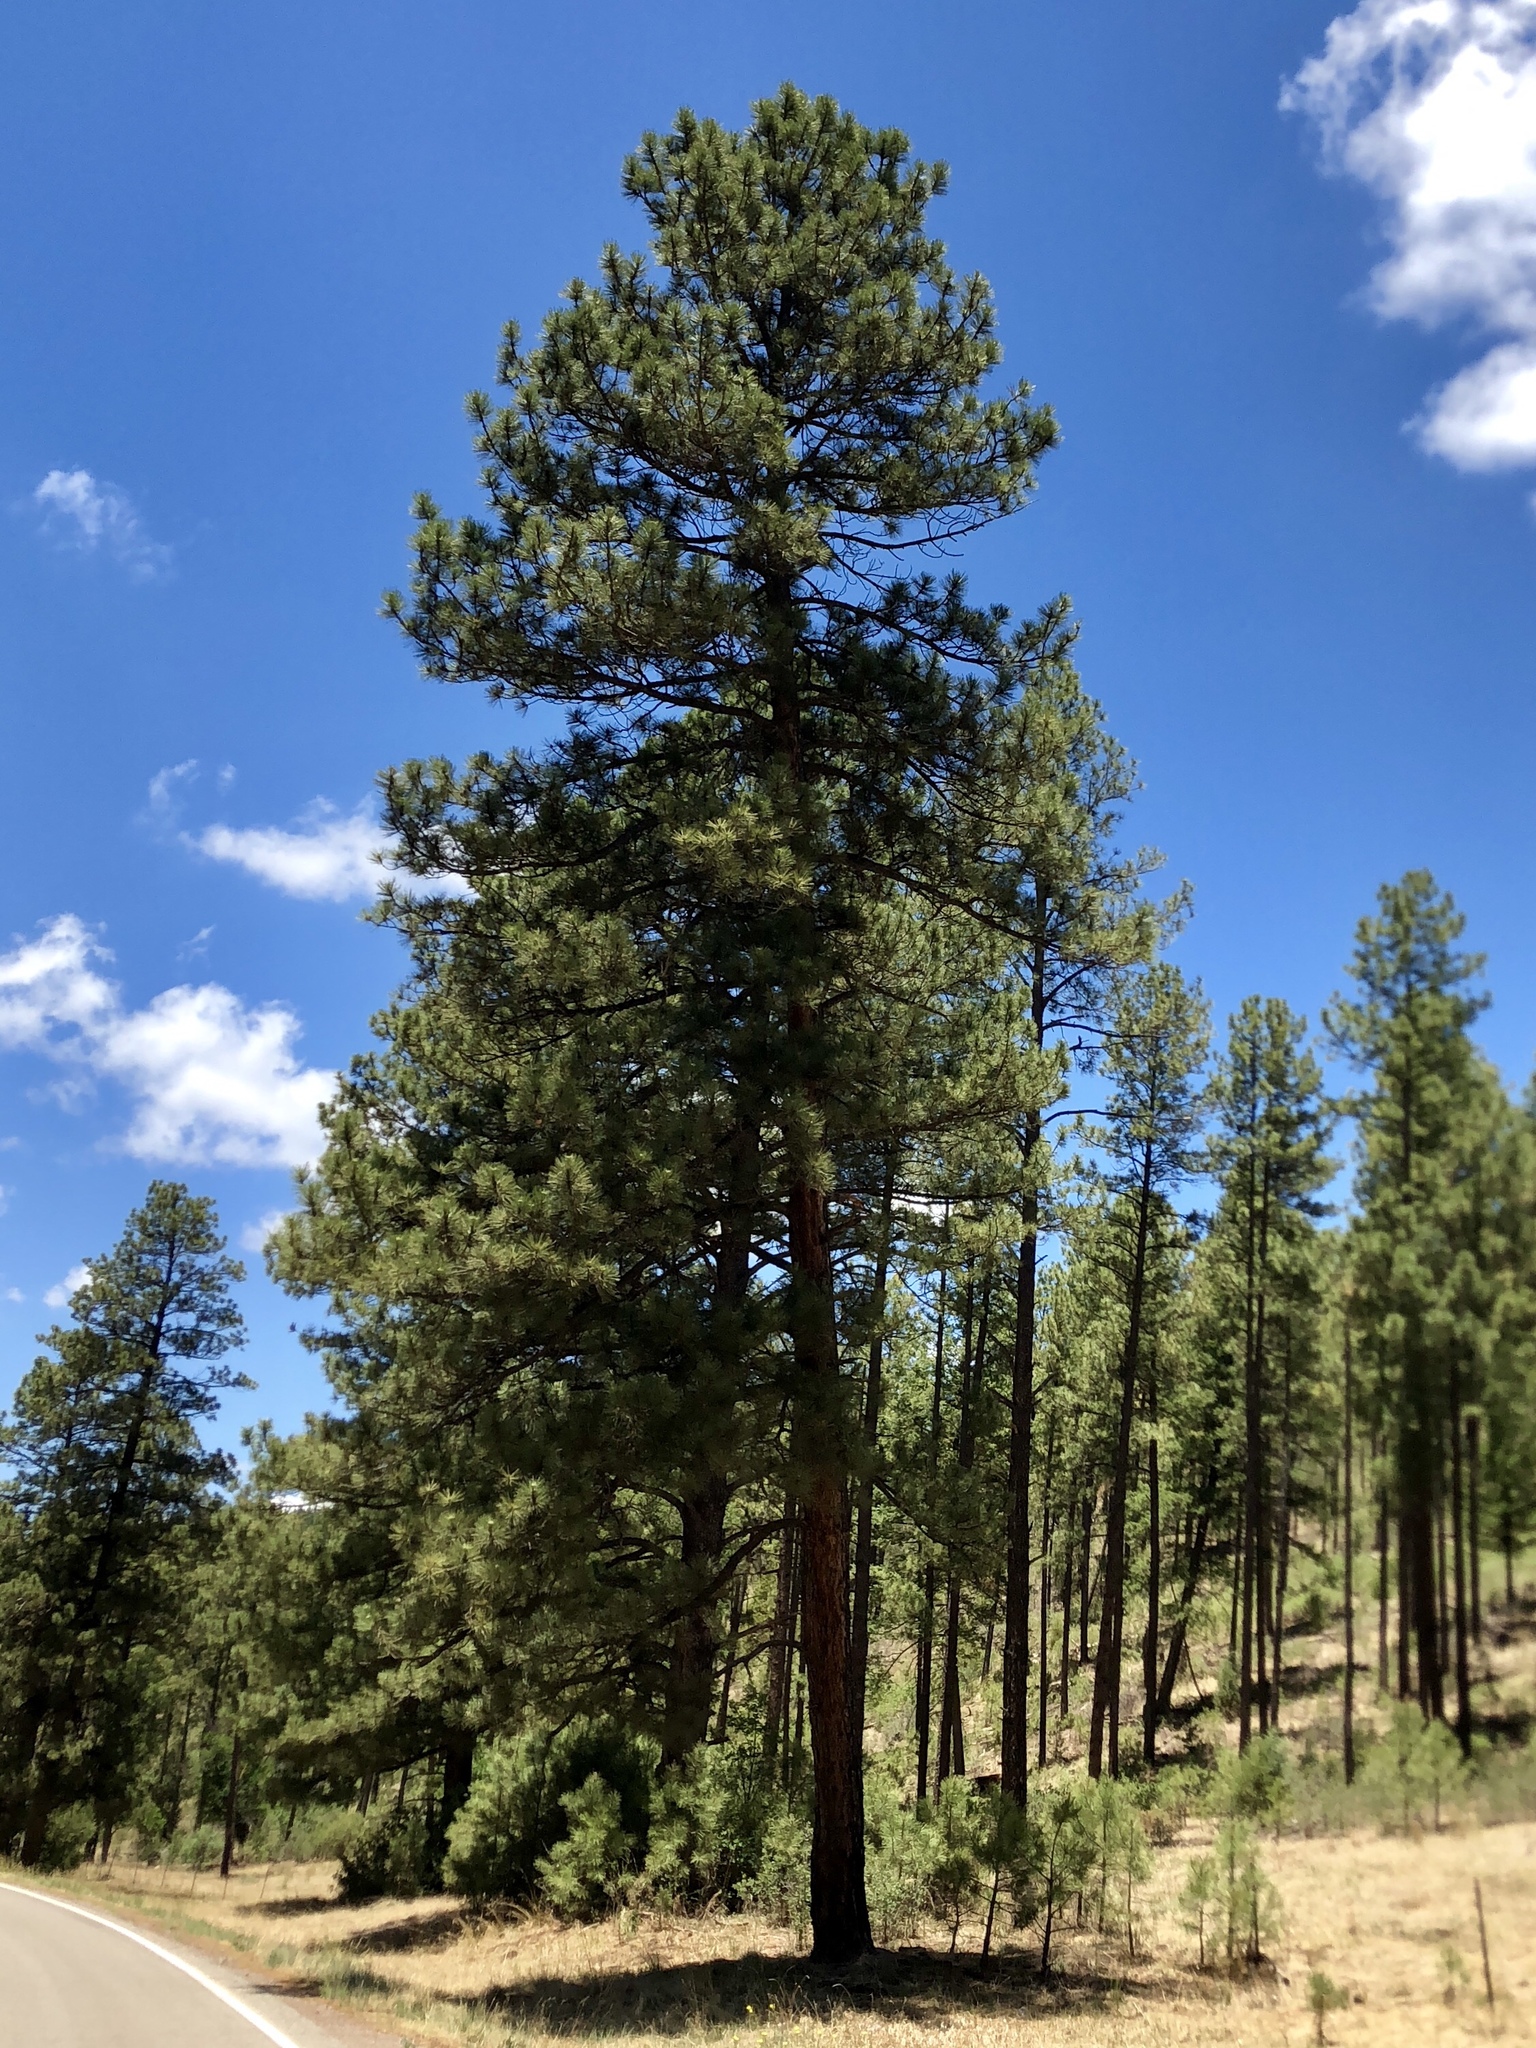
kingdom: Plantae
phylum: Tracheophyta
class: Pinopsida
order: Pinales
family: Pinaceae
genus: Pinus
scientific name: Pinus ponderosa
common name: Western yellow-pine
